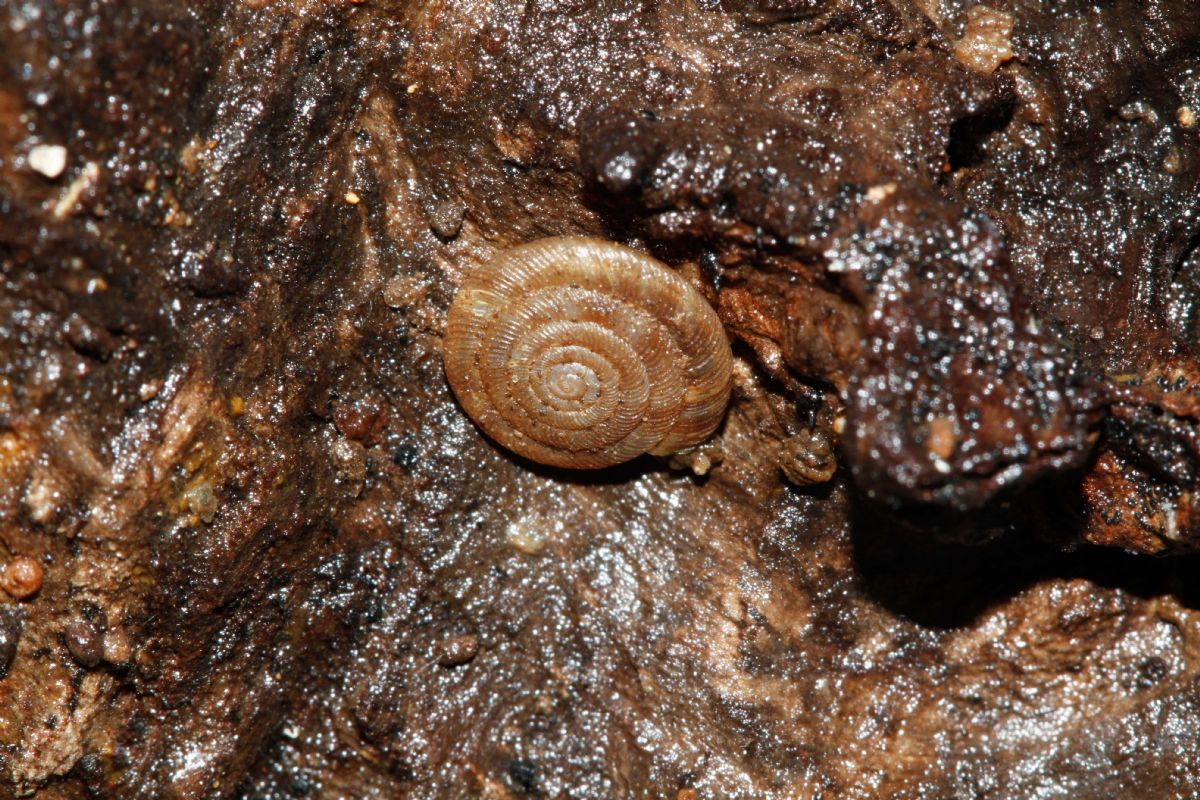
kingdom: Animalia
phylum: Mollusca
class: Gastropoda
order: Stylommatophora
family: Discidae
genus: Discus
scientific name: Discus rotundatus
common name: Rounded snail
